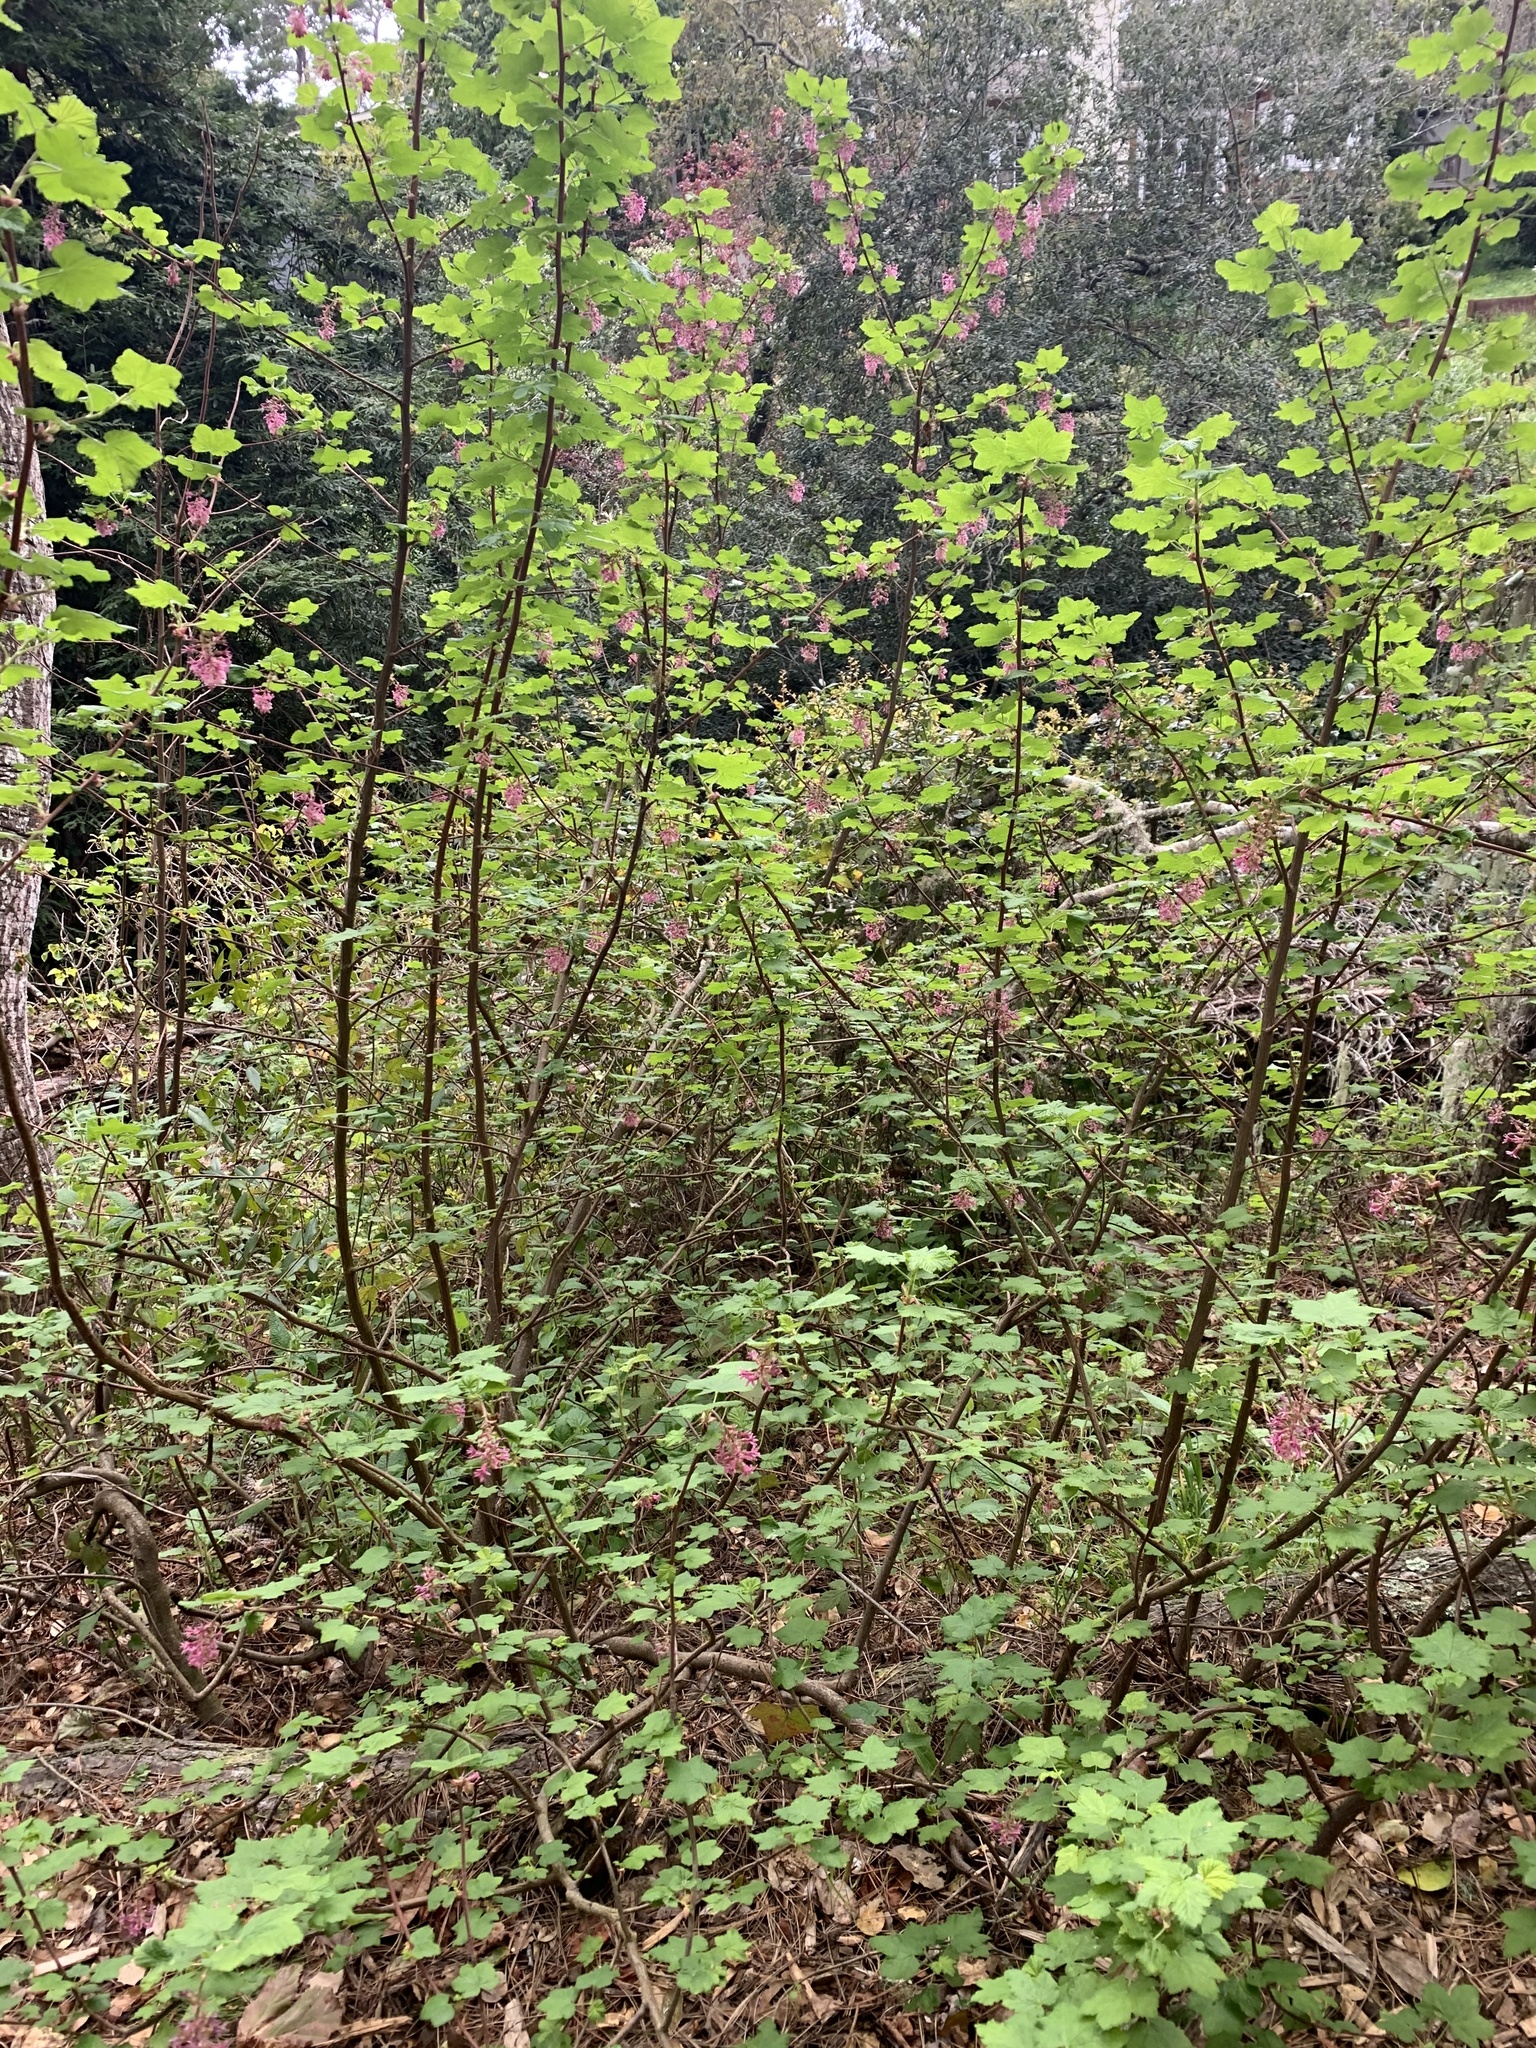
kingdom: Plantae
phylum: Tracheophyta
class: Magnoliopsida
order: Saxifragales
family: Grossulariaceae
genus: Ribes
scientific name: Ribes sanguineum
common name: Flowering currant
